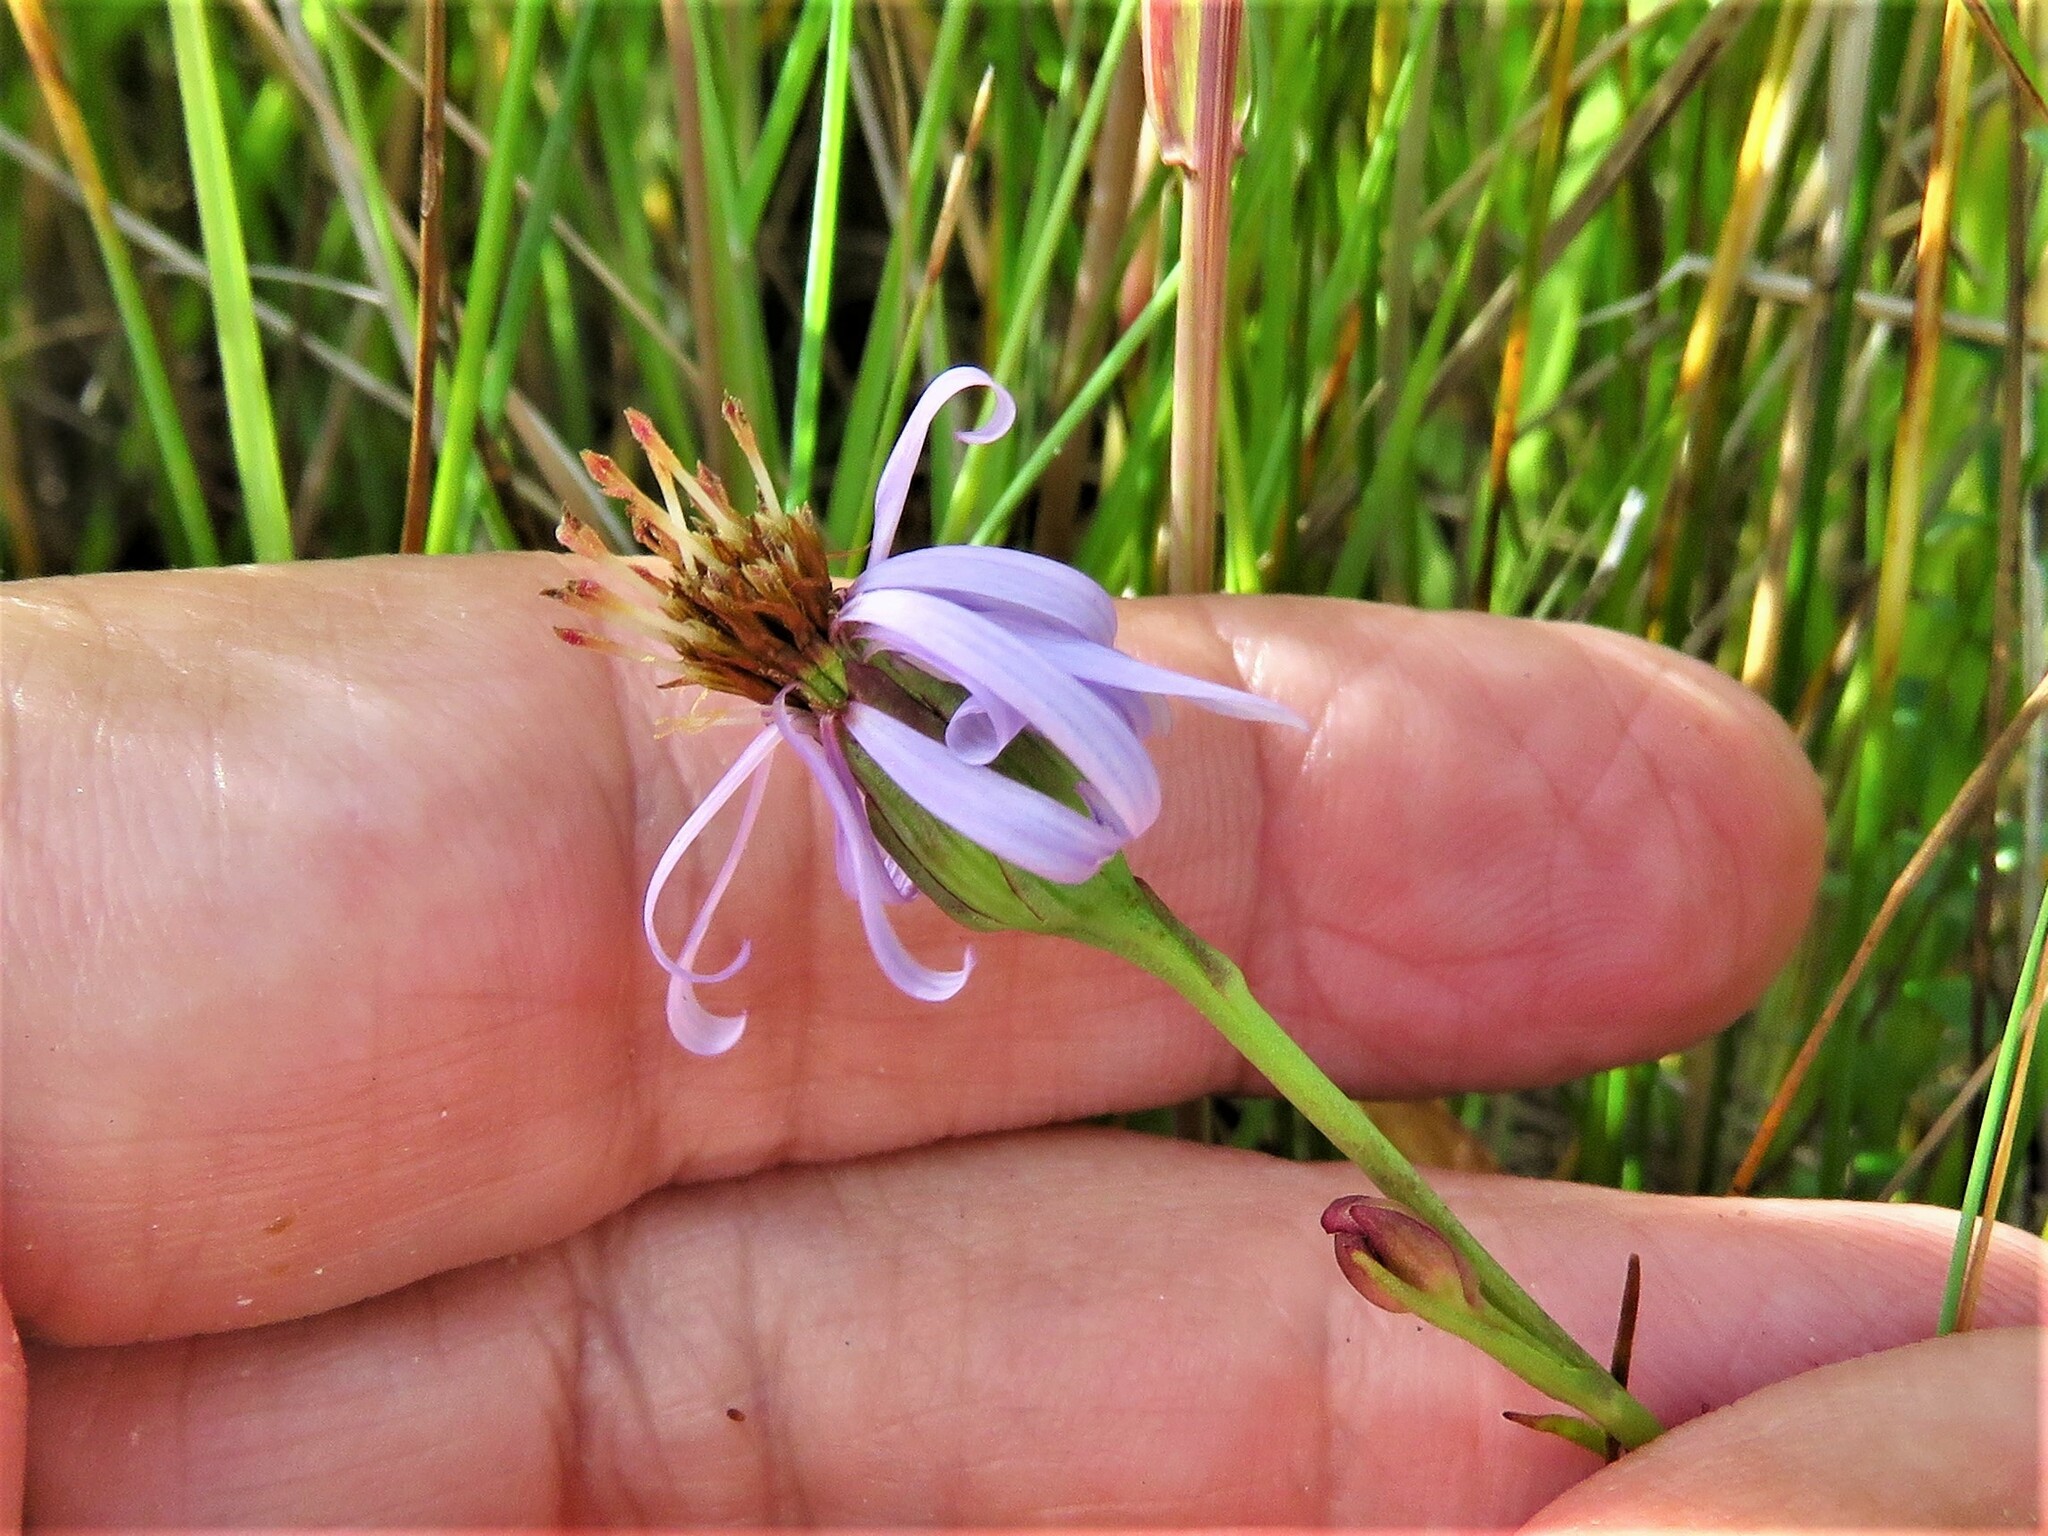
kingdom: Plantae
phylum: Tracheophyta
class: Magnoliopsida
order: Asterales
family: Asteraceae
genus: Tripolium
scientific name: Tripolium pannonicum
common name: Sea aster
